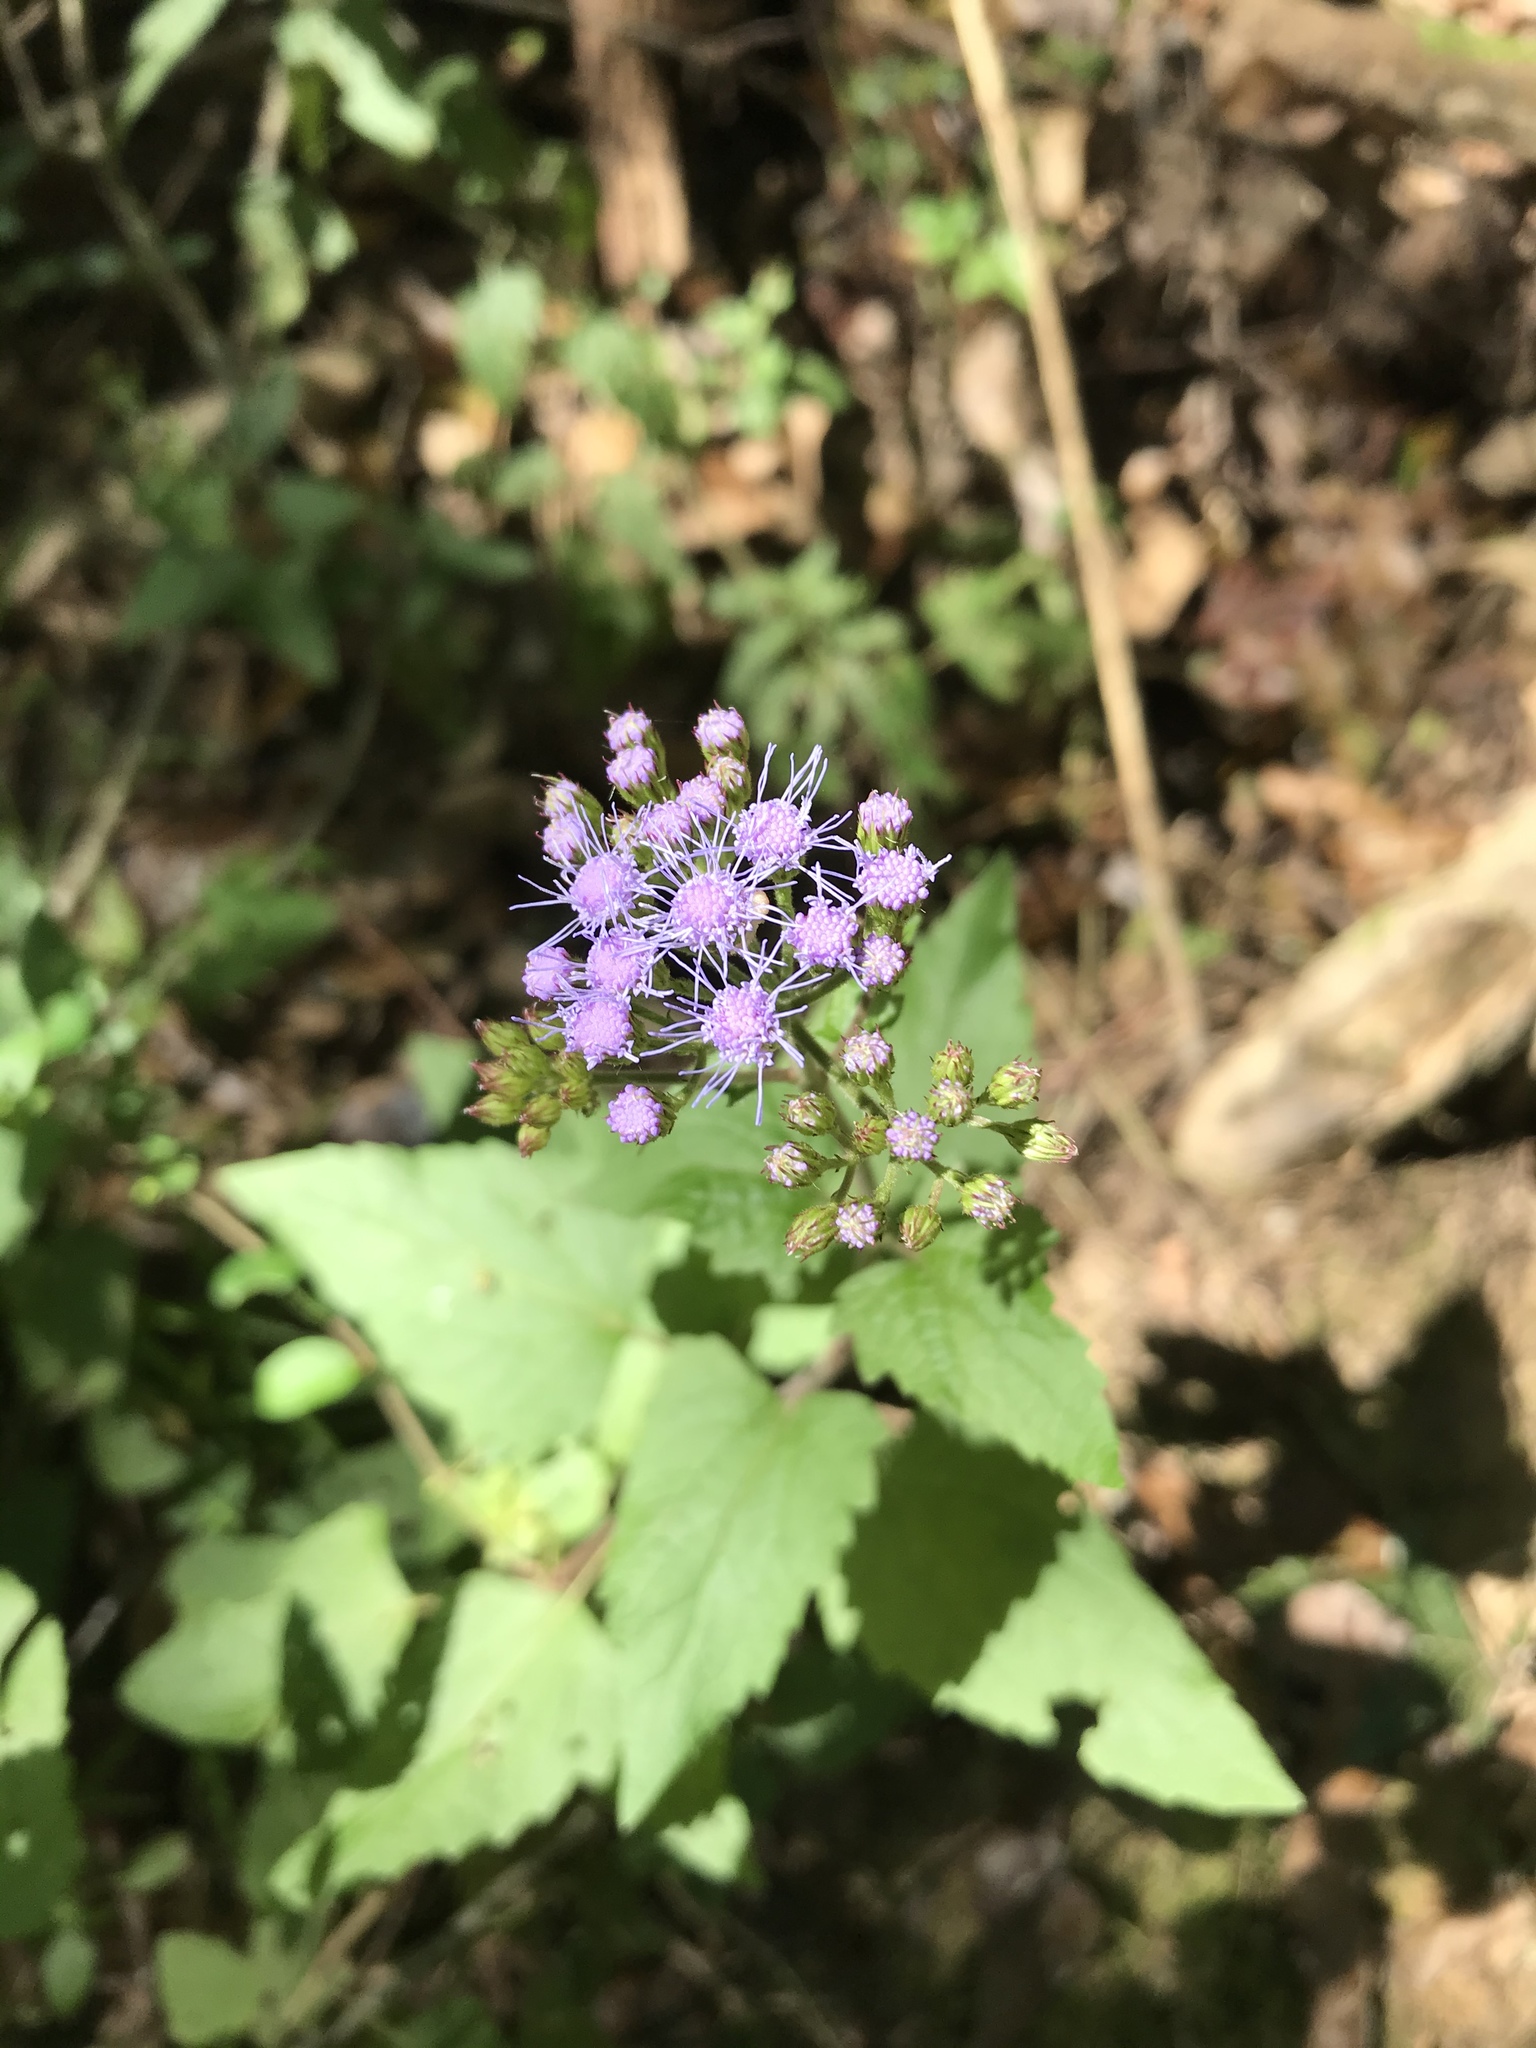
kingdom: Plantae
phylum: Tracheophyta
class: Magnoliopsida
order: Asterales
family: Asteraceae
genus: Conoclinium
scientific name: Conoclinium coelestinum
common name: Blue mistflower
